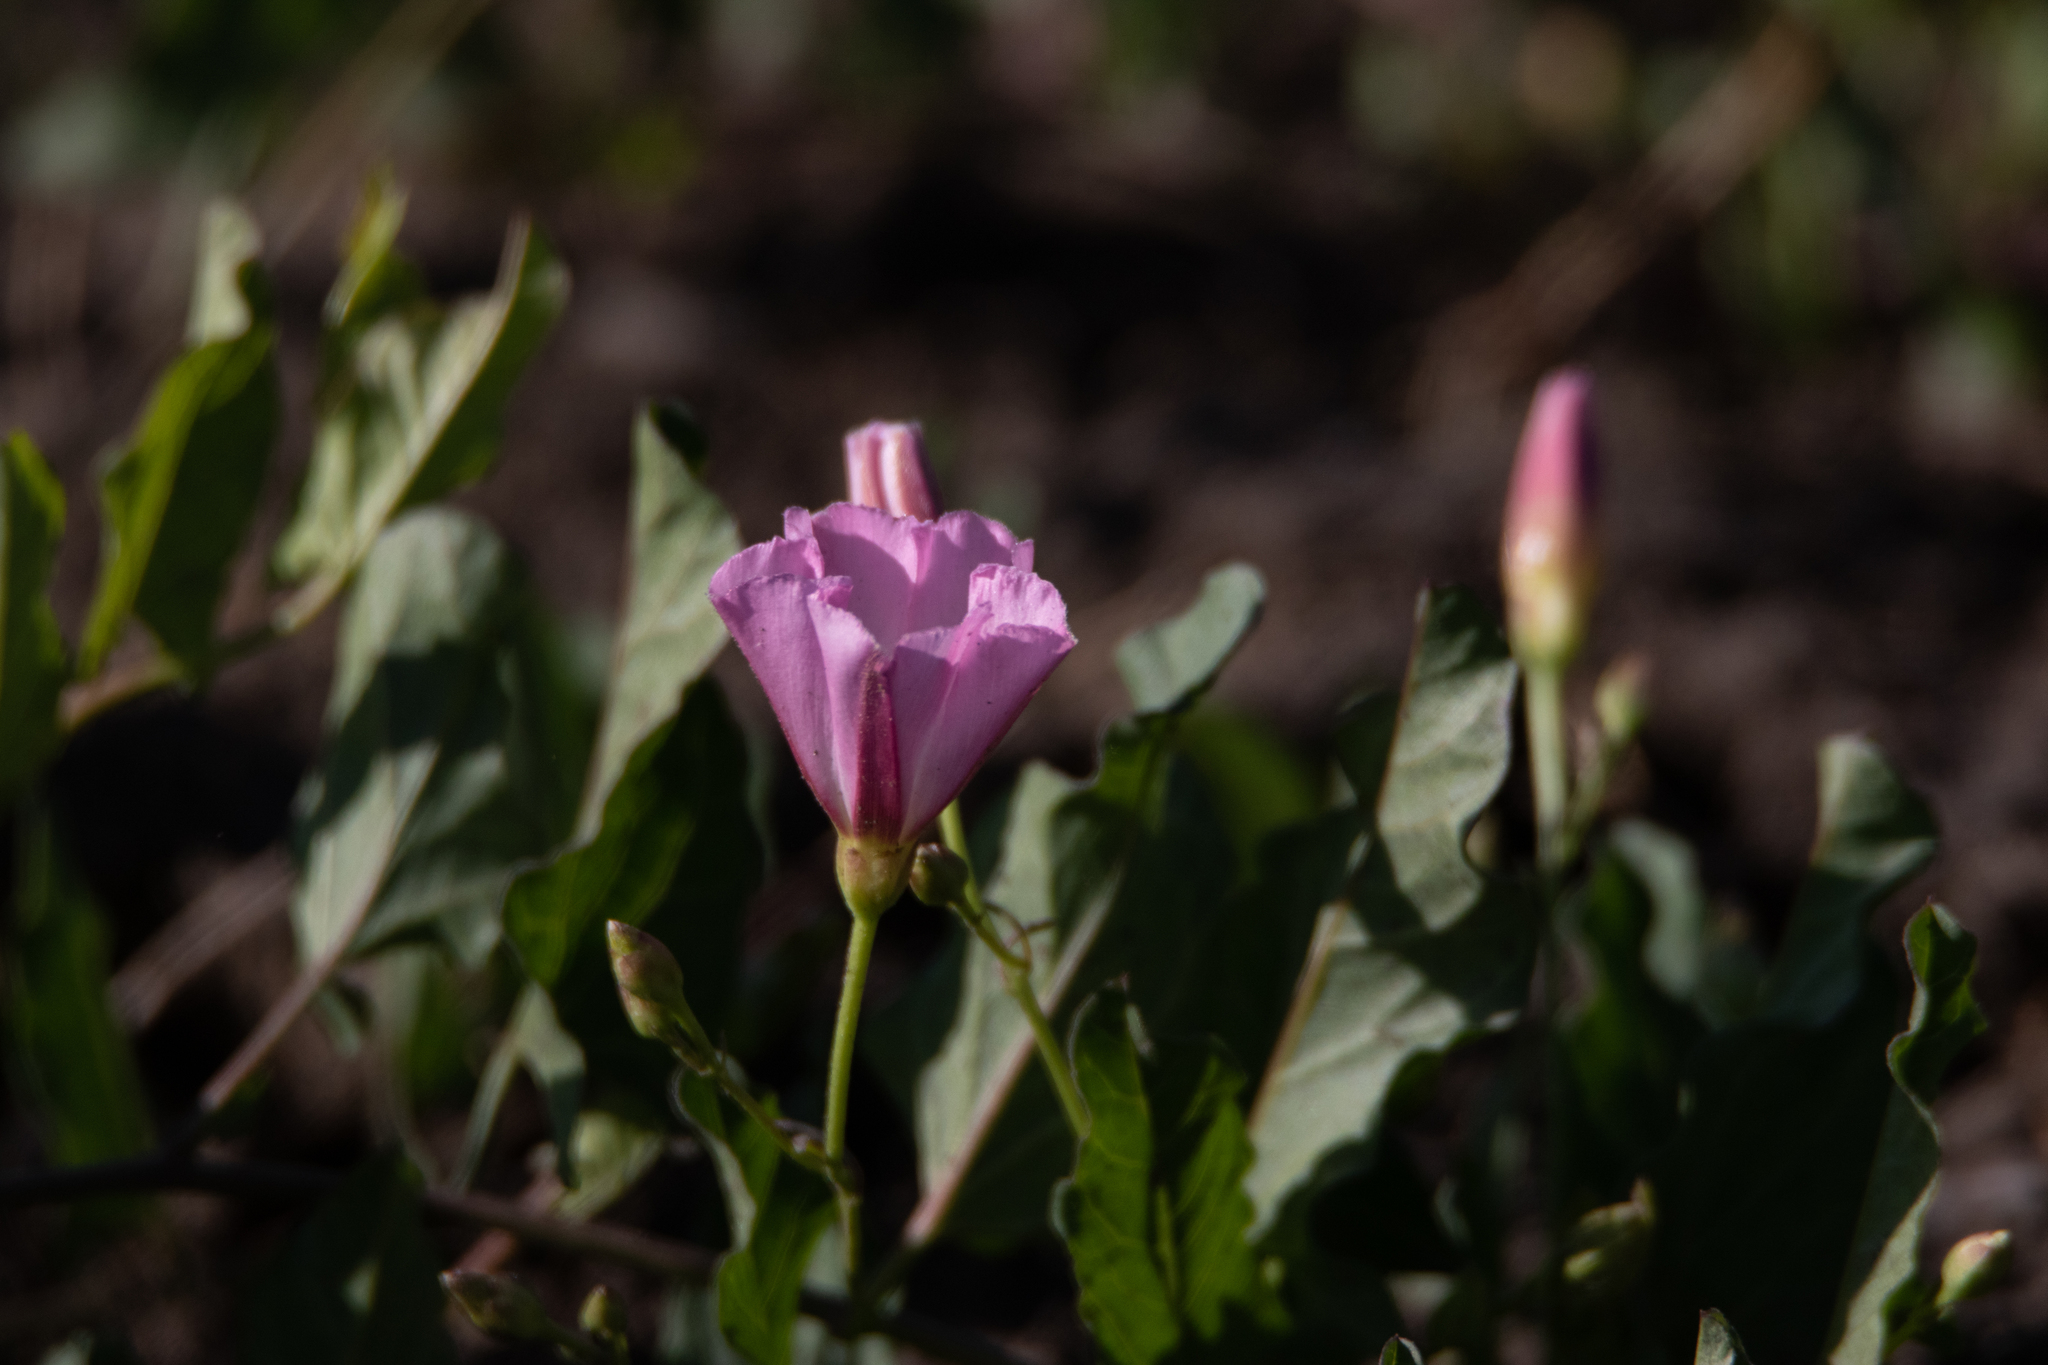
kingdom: Plantae
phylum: Tracheophyta
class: Magnoliopsida
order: Solanales
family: Convolvulaceae
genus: Convolvulus
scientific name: Convolvulus arvensis
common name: Field bindweed
